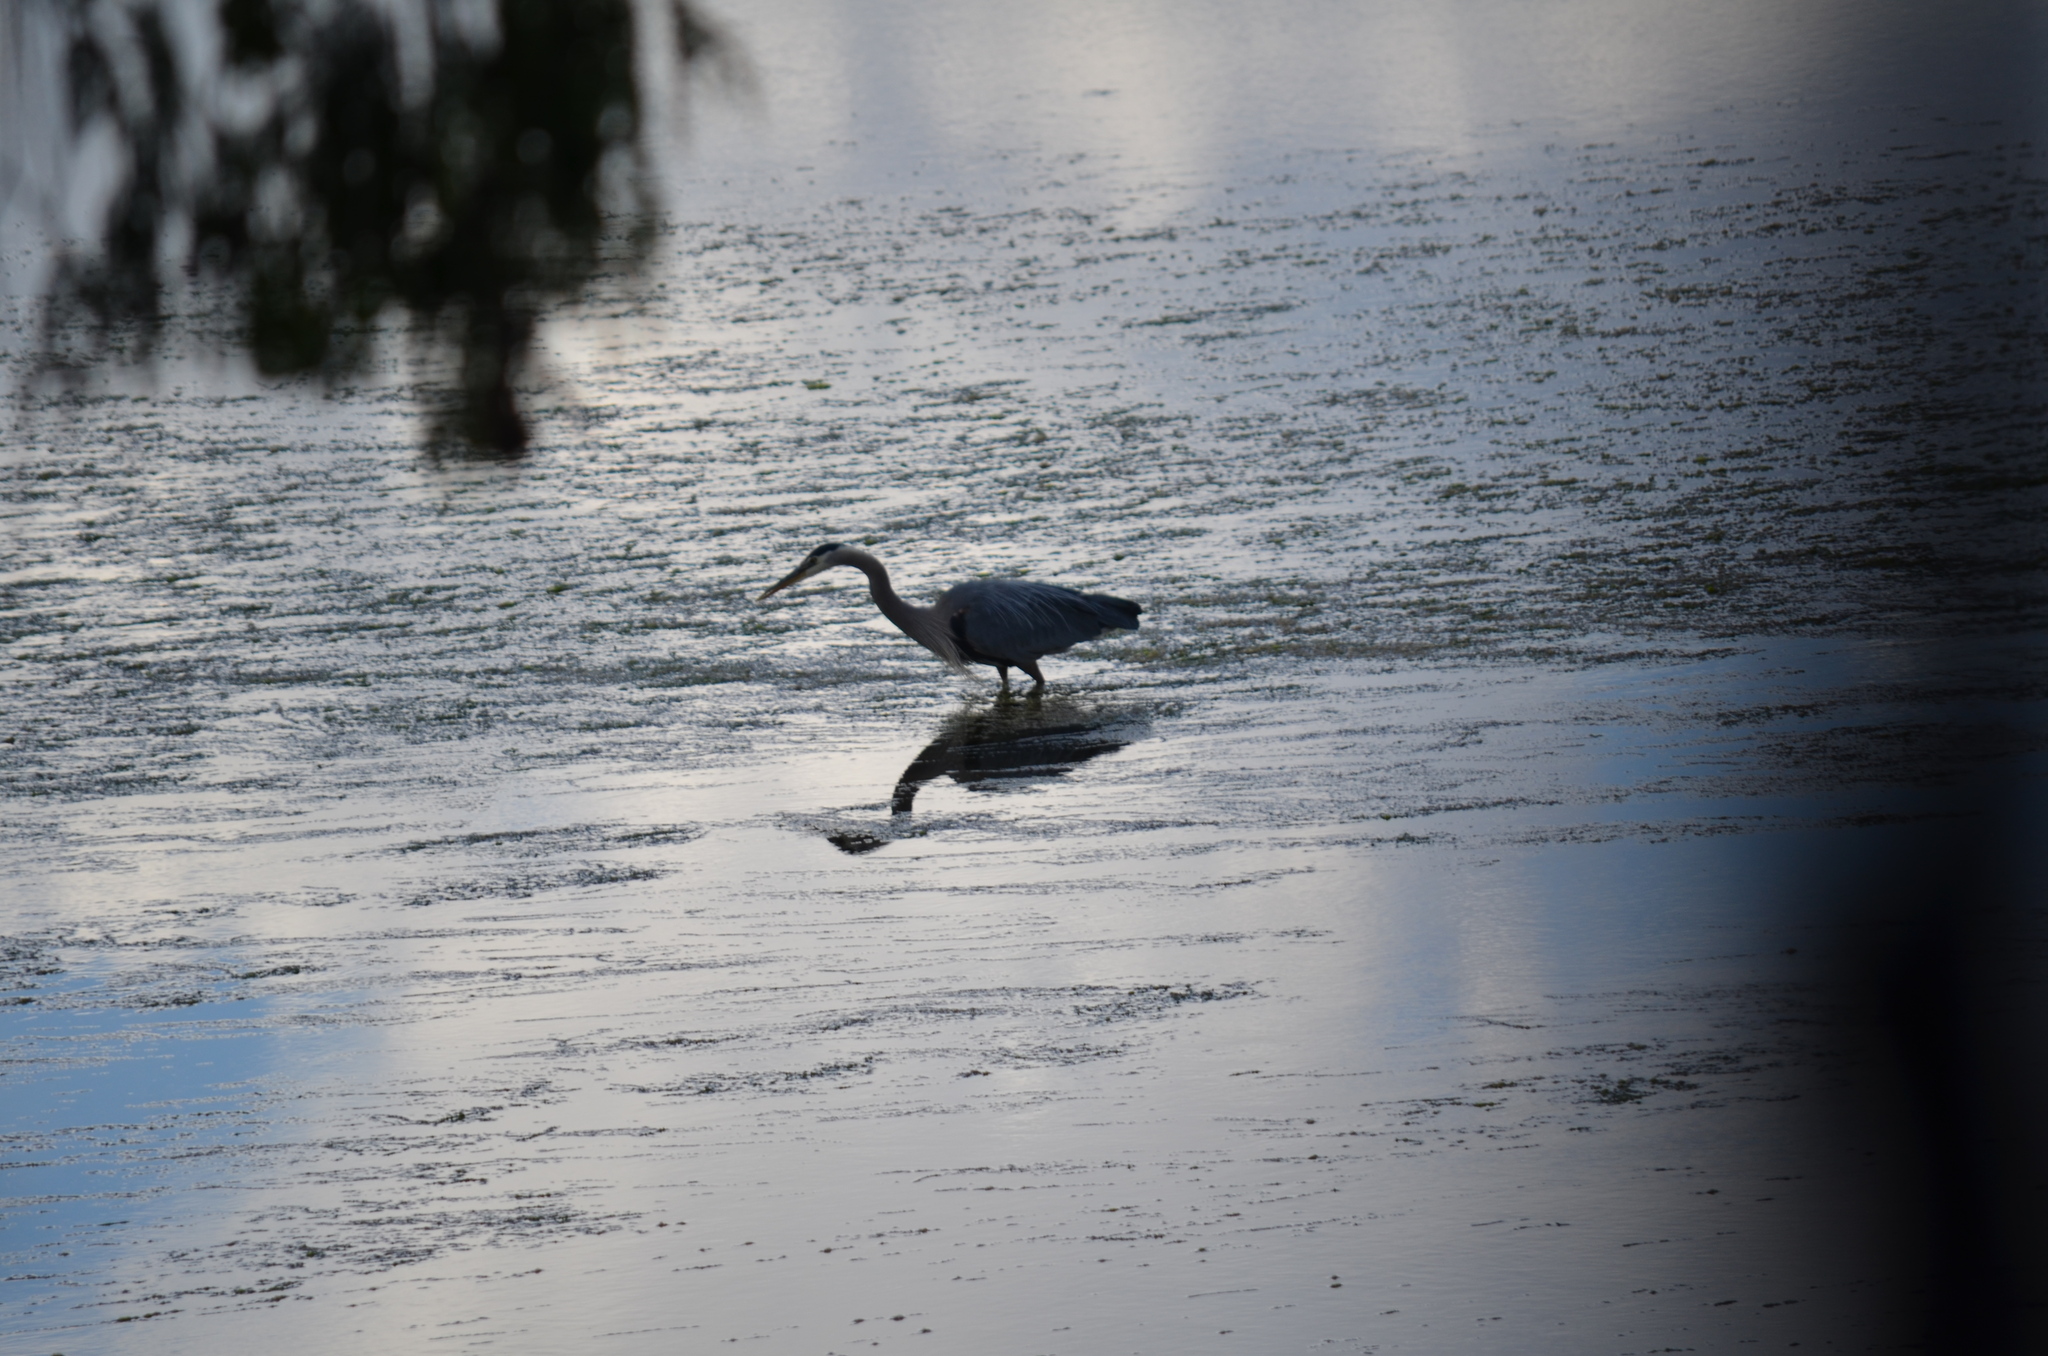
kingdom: Animalia
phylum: Chordata
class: Aves
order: Pelecaniformes
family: Ardeidae
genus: Ardea
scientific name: Ardea herodias
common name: Great blue heron
